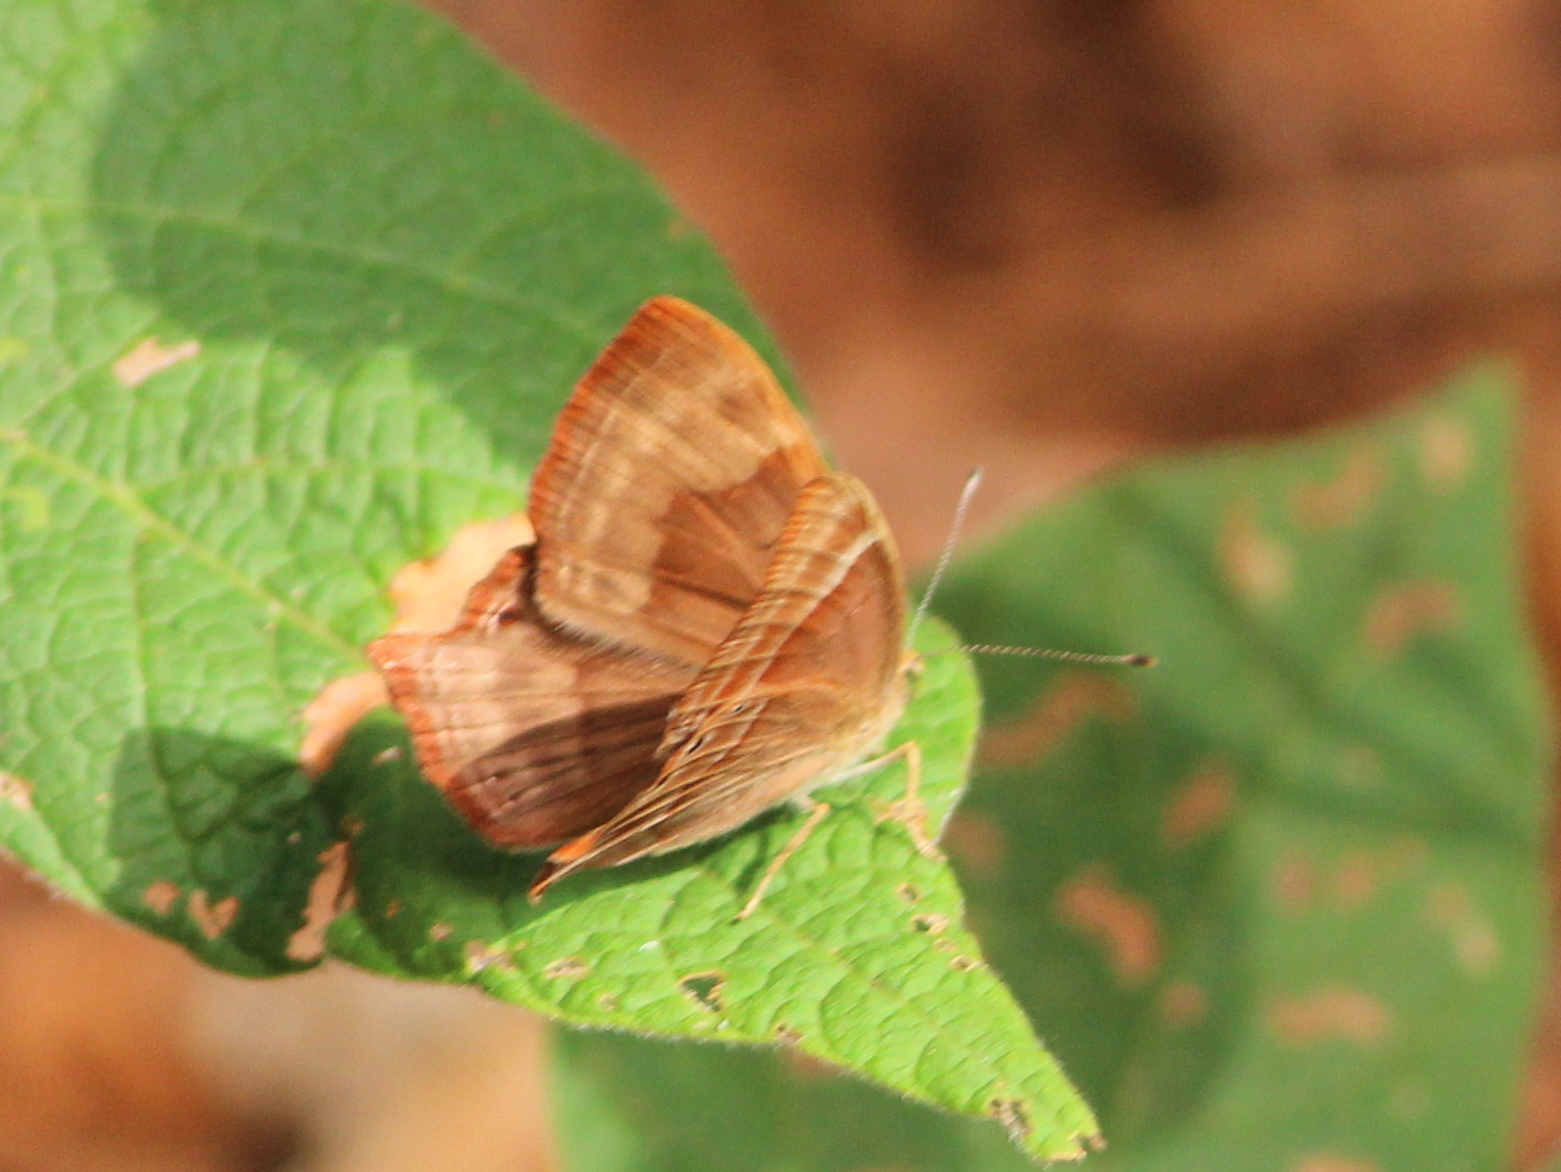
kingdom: Animalia
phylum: Arthropoda
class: Insecta
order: Lepidoptera
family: Lycaenidae
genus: Abisara
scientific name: Abisara bifasciata
